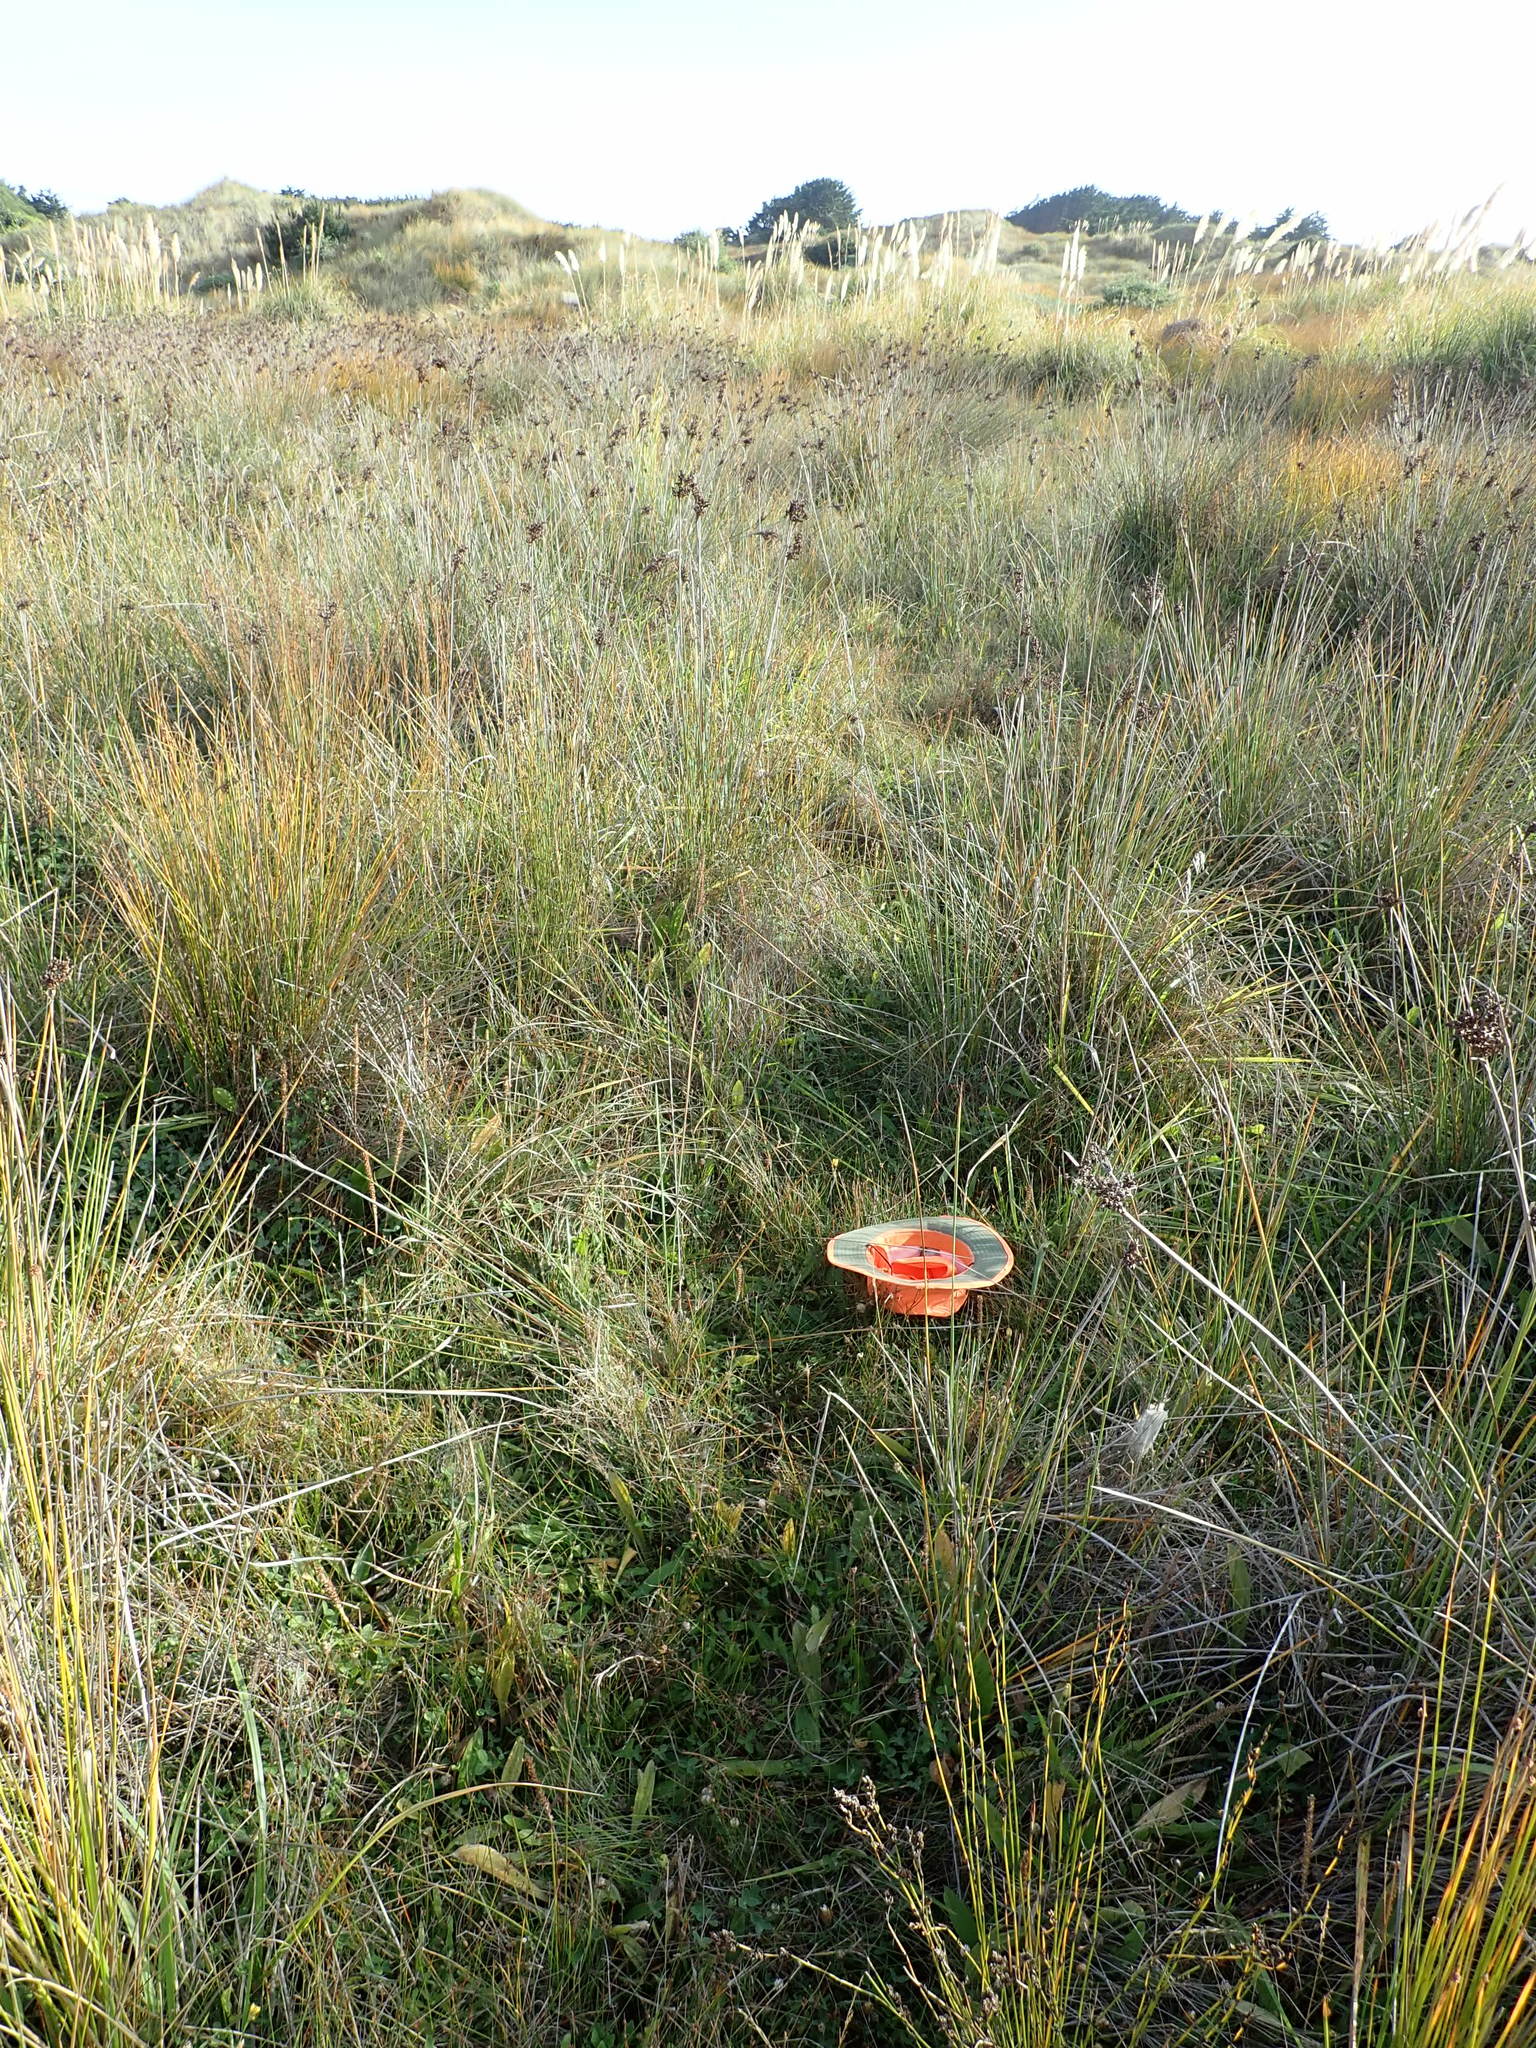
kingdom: Plantae
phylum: Tracheophyta
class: Magnoliopsida
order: Lamiales
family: Plantaginaceae
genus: Plantago
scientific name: Plantago lanceolata
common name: Ribwort plantain
